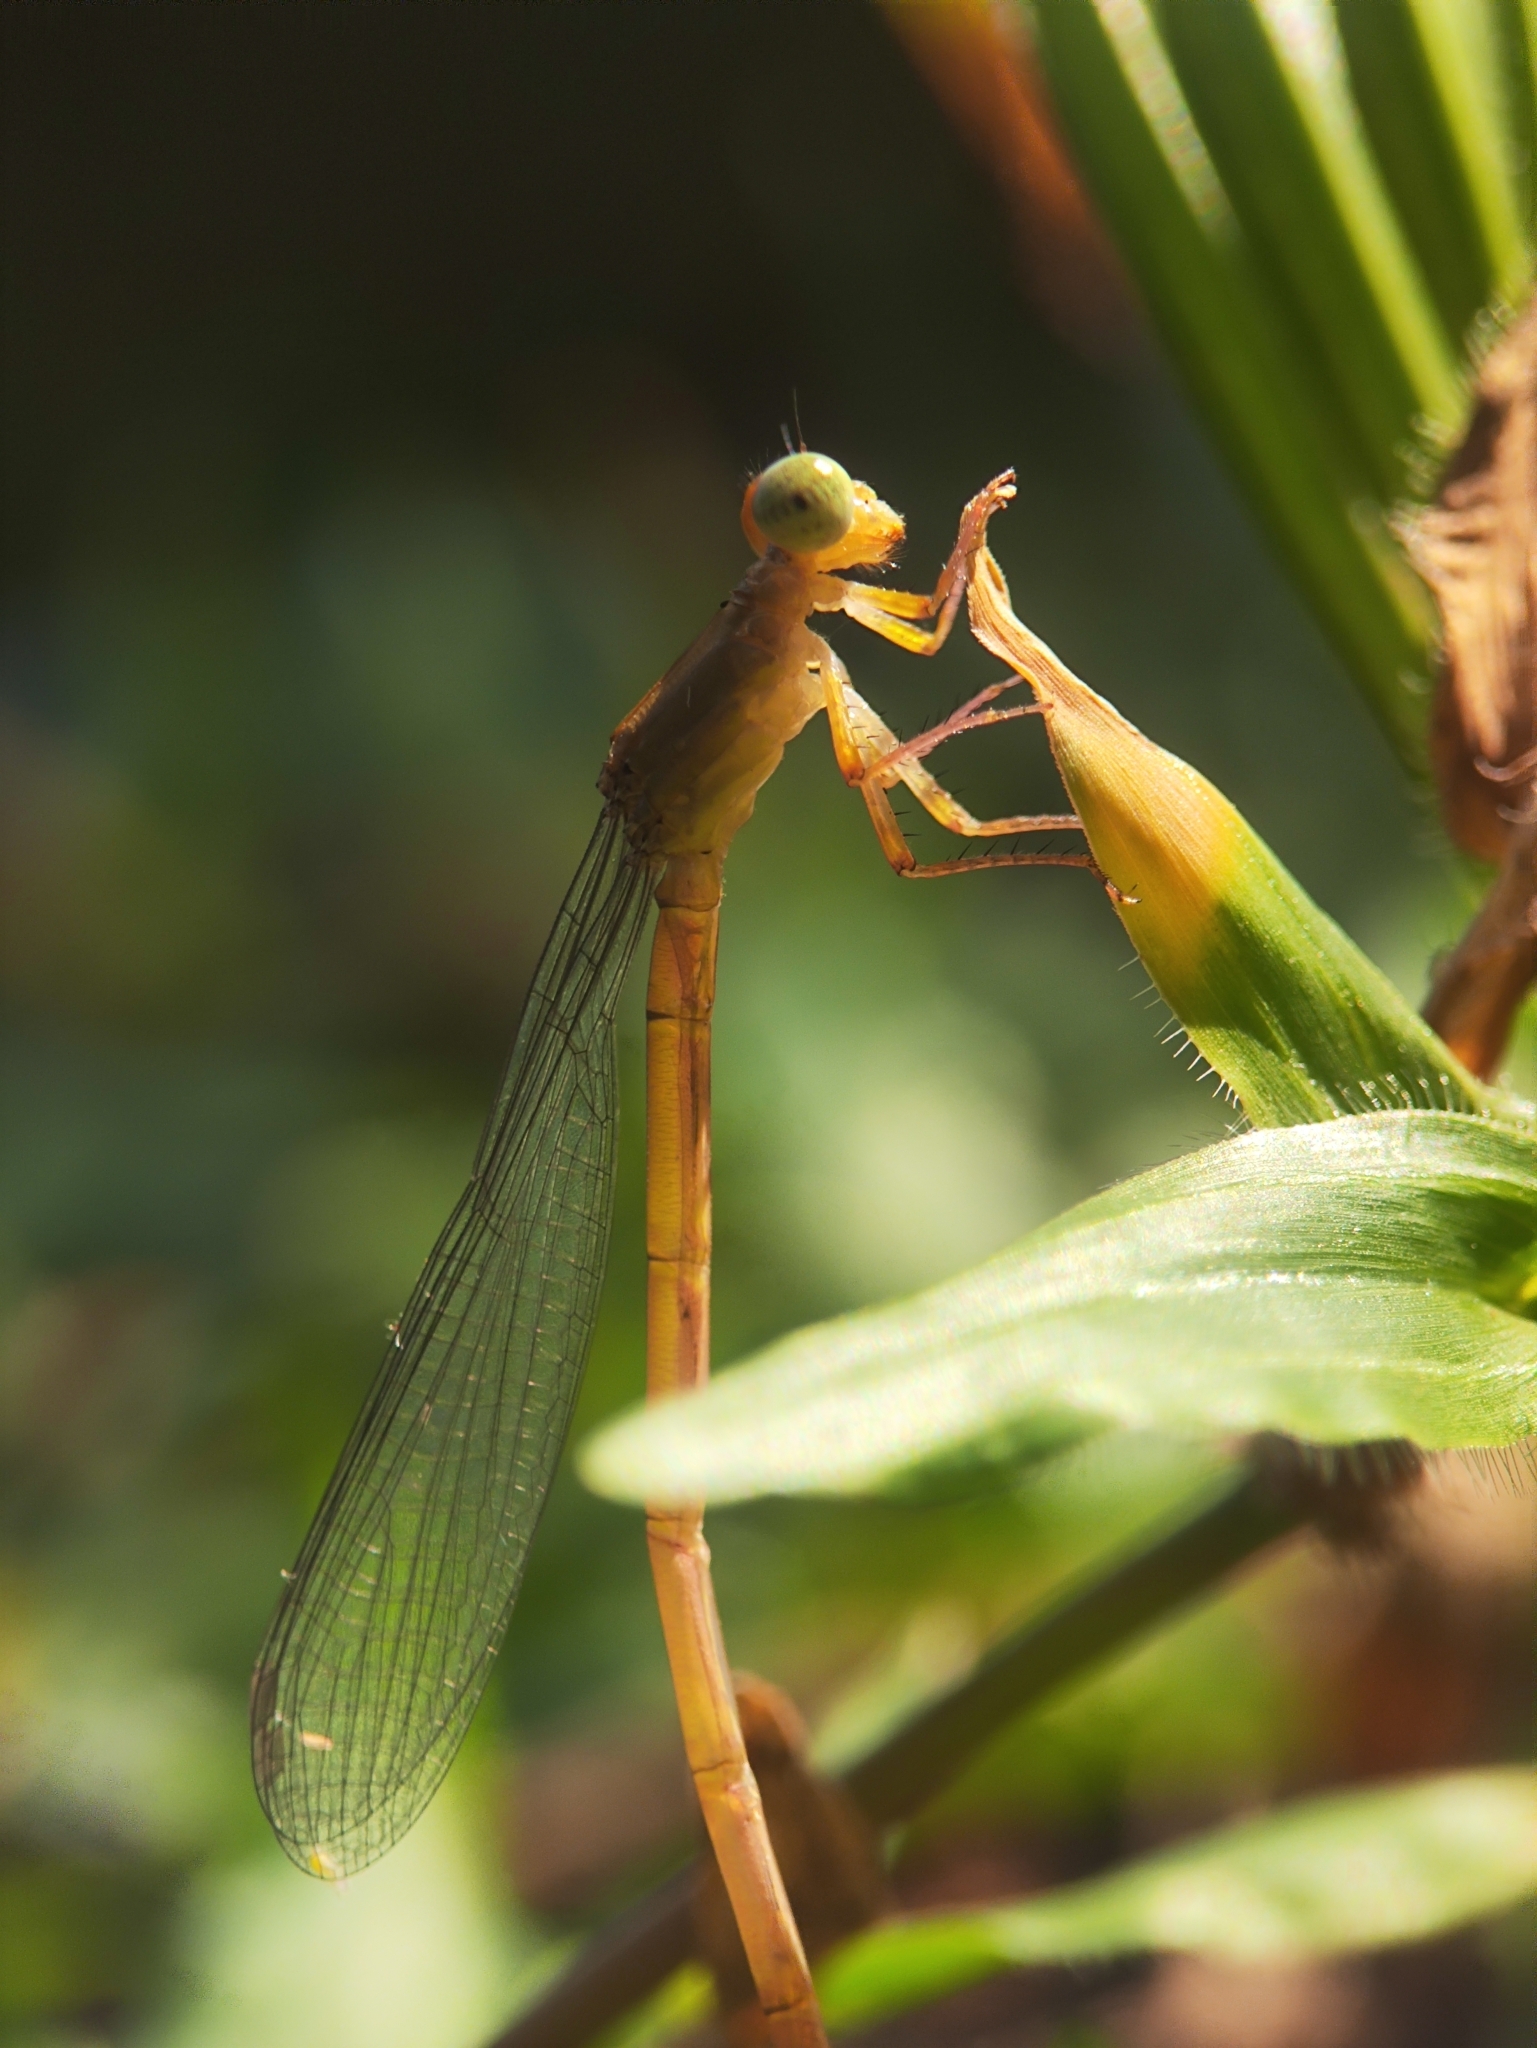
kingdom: Animalia
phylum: Arthropoda
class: Insecta
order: Odonata
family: Coenagrionidae
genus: Ceriagrion
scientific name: Ceriagrion coromandelianum
